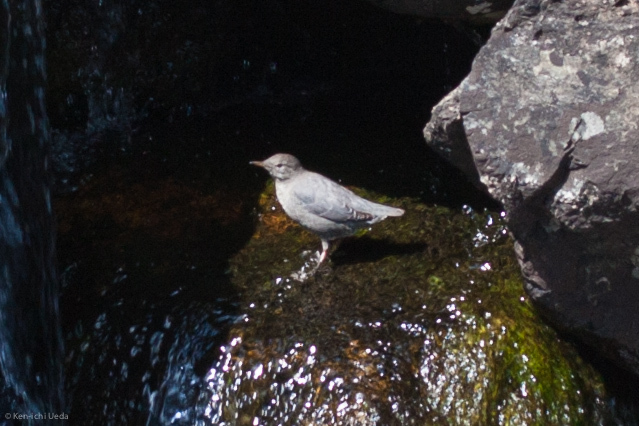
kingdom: Animalia
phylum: Chordata
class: Aves
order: Passeriformes
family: Cinclidae
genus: Cinclus
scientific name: Cinclus mexicanus
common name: American dipper
